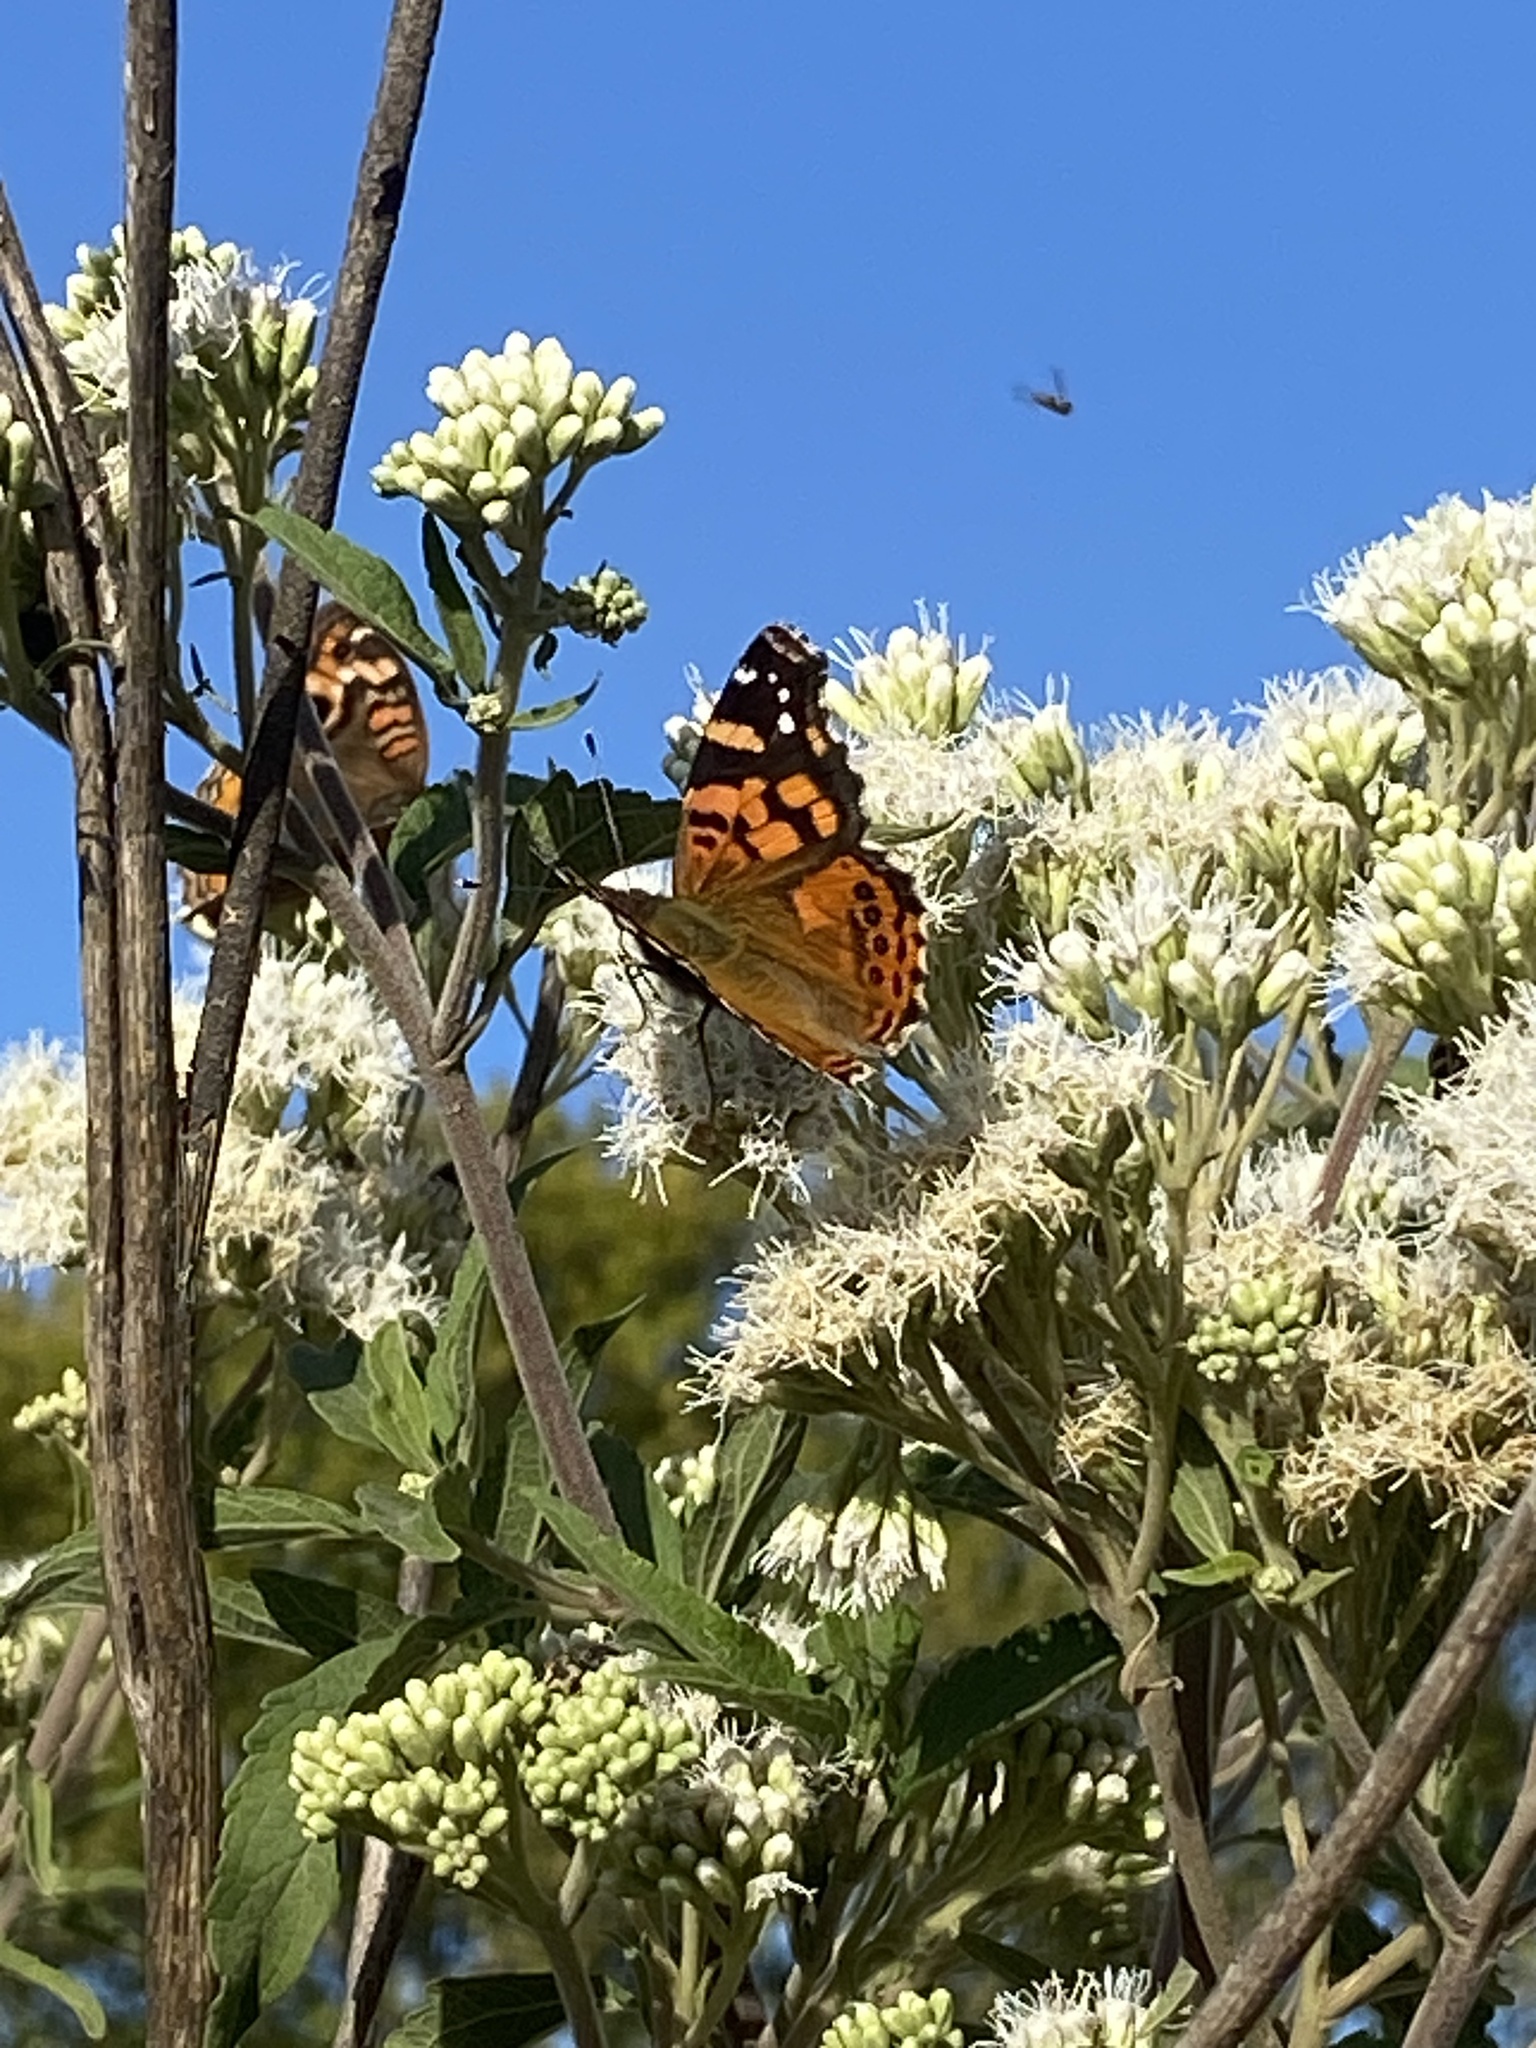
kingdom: Animalia
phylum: Arthropoda
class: Insecta
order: Lepidoptera
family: Nymphalidae
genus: Vanessa
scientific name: Vanessa carye
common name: Subtropical lady
